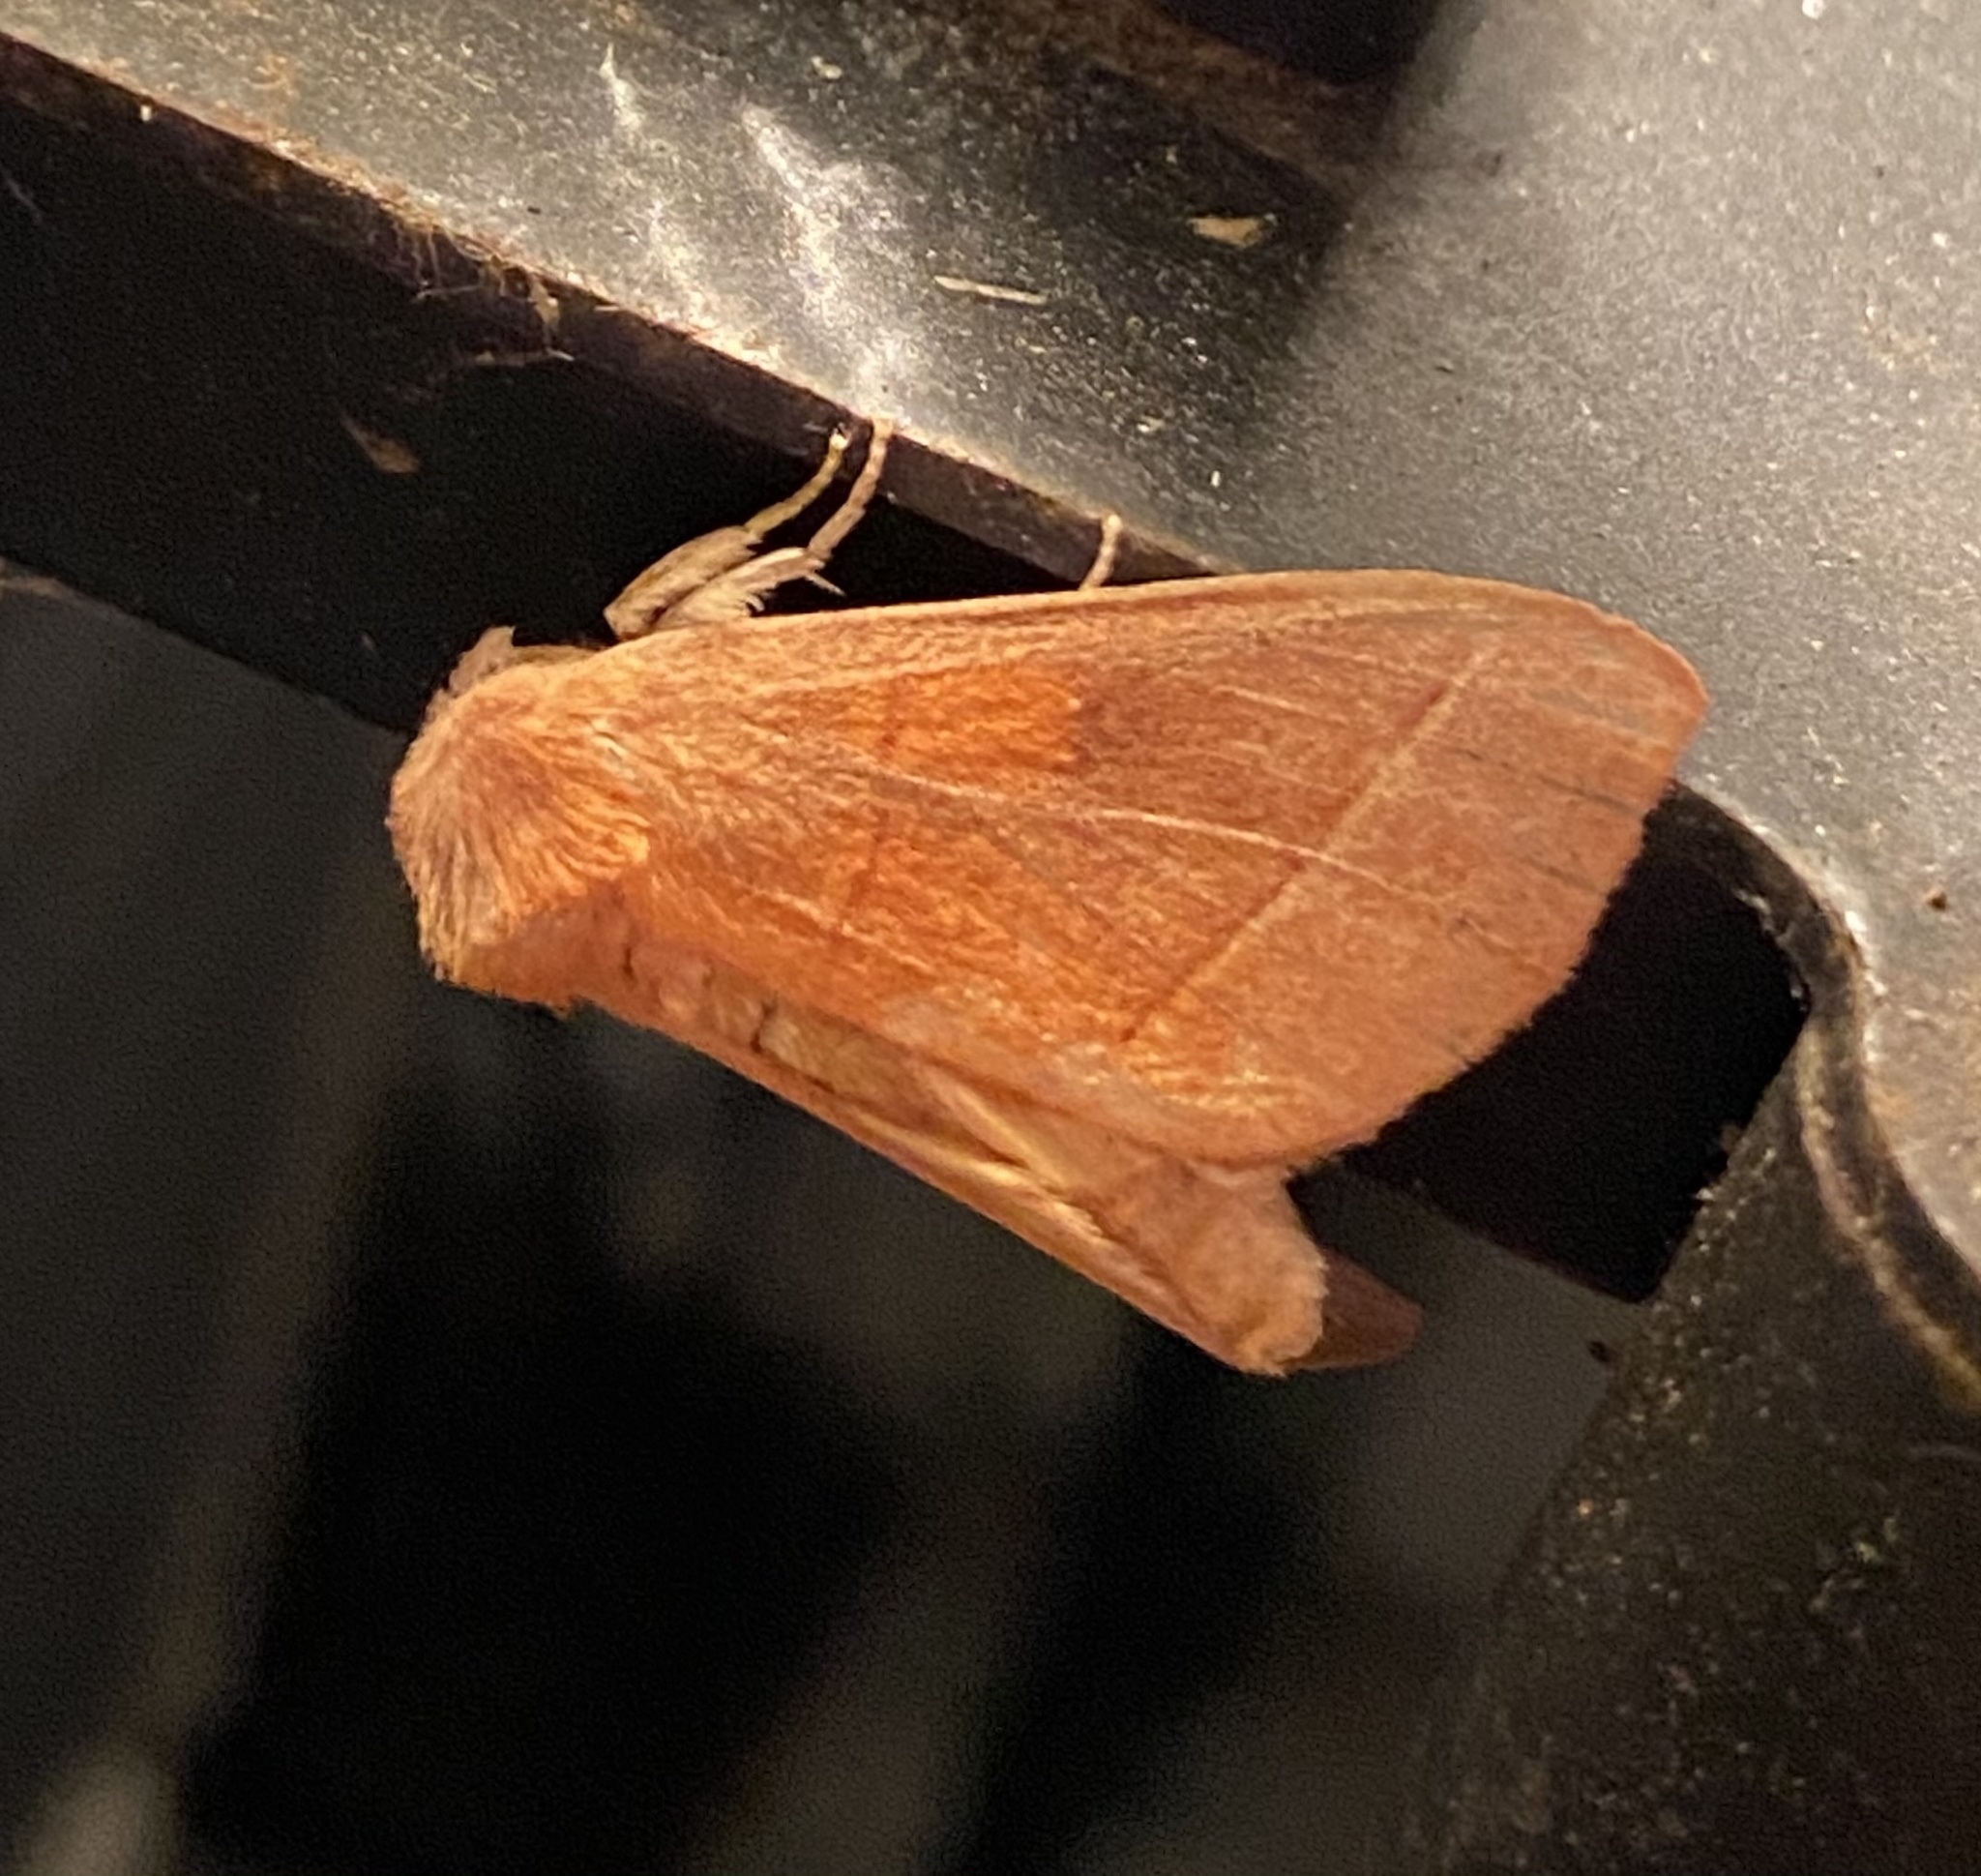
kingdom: Animalia
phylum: Arthropoda
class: Insecta
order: Lepidoptera
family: Notodontidae
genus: Nadata
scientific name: Nadata gibbosa
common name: White-dotted prominent
